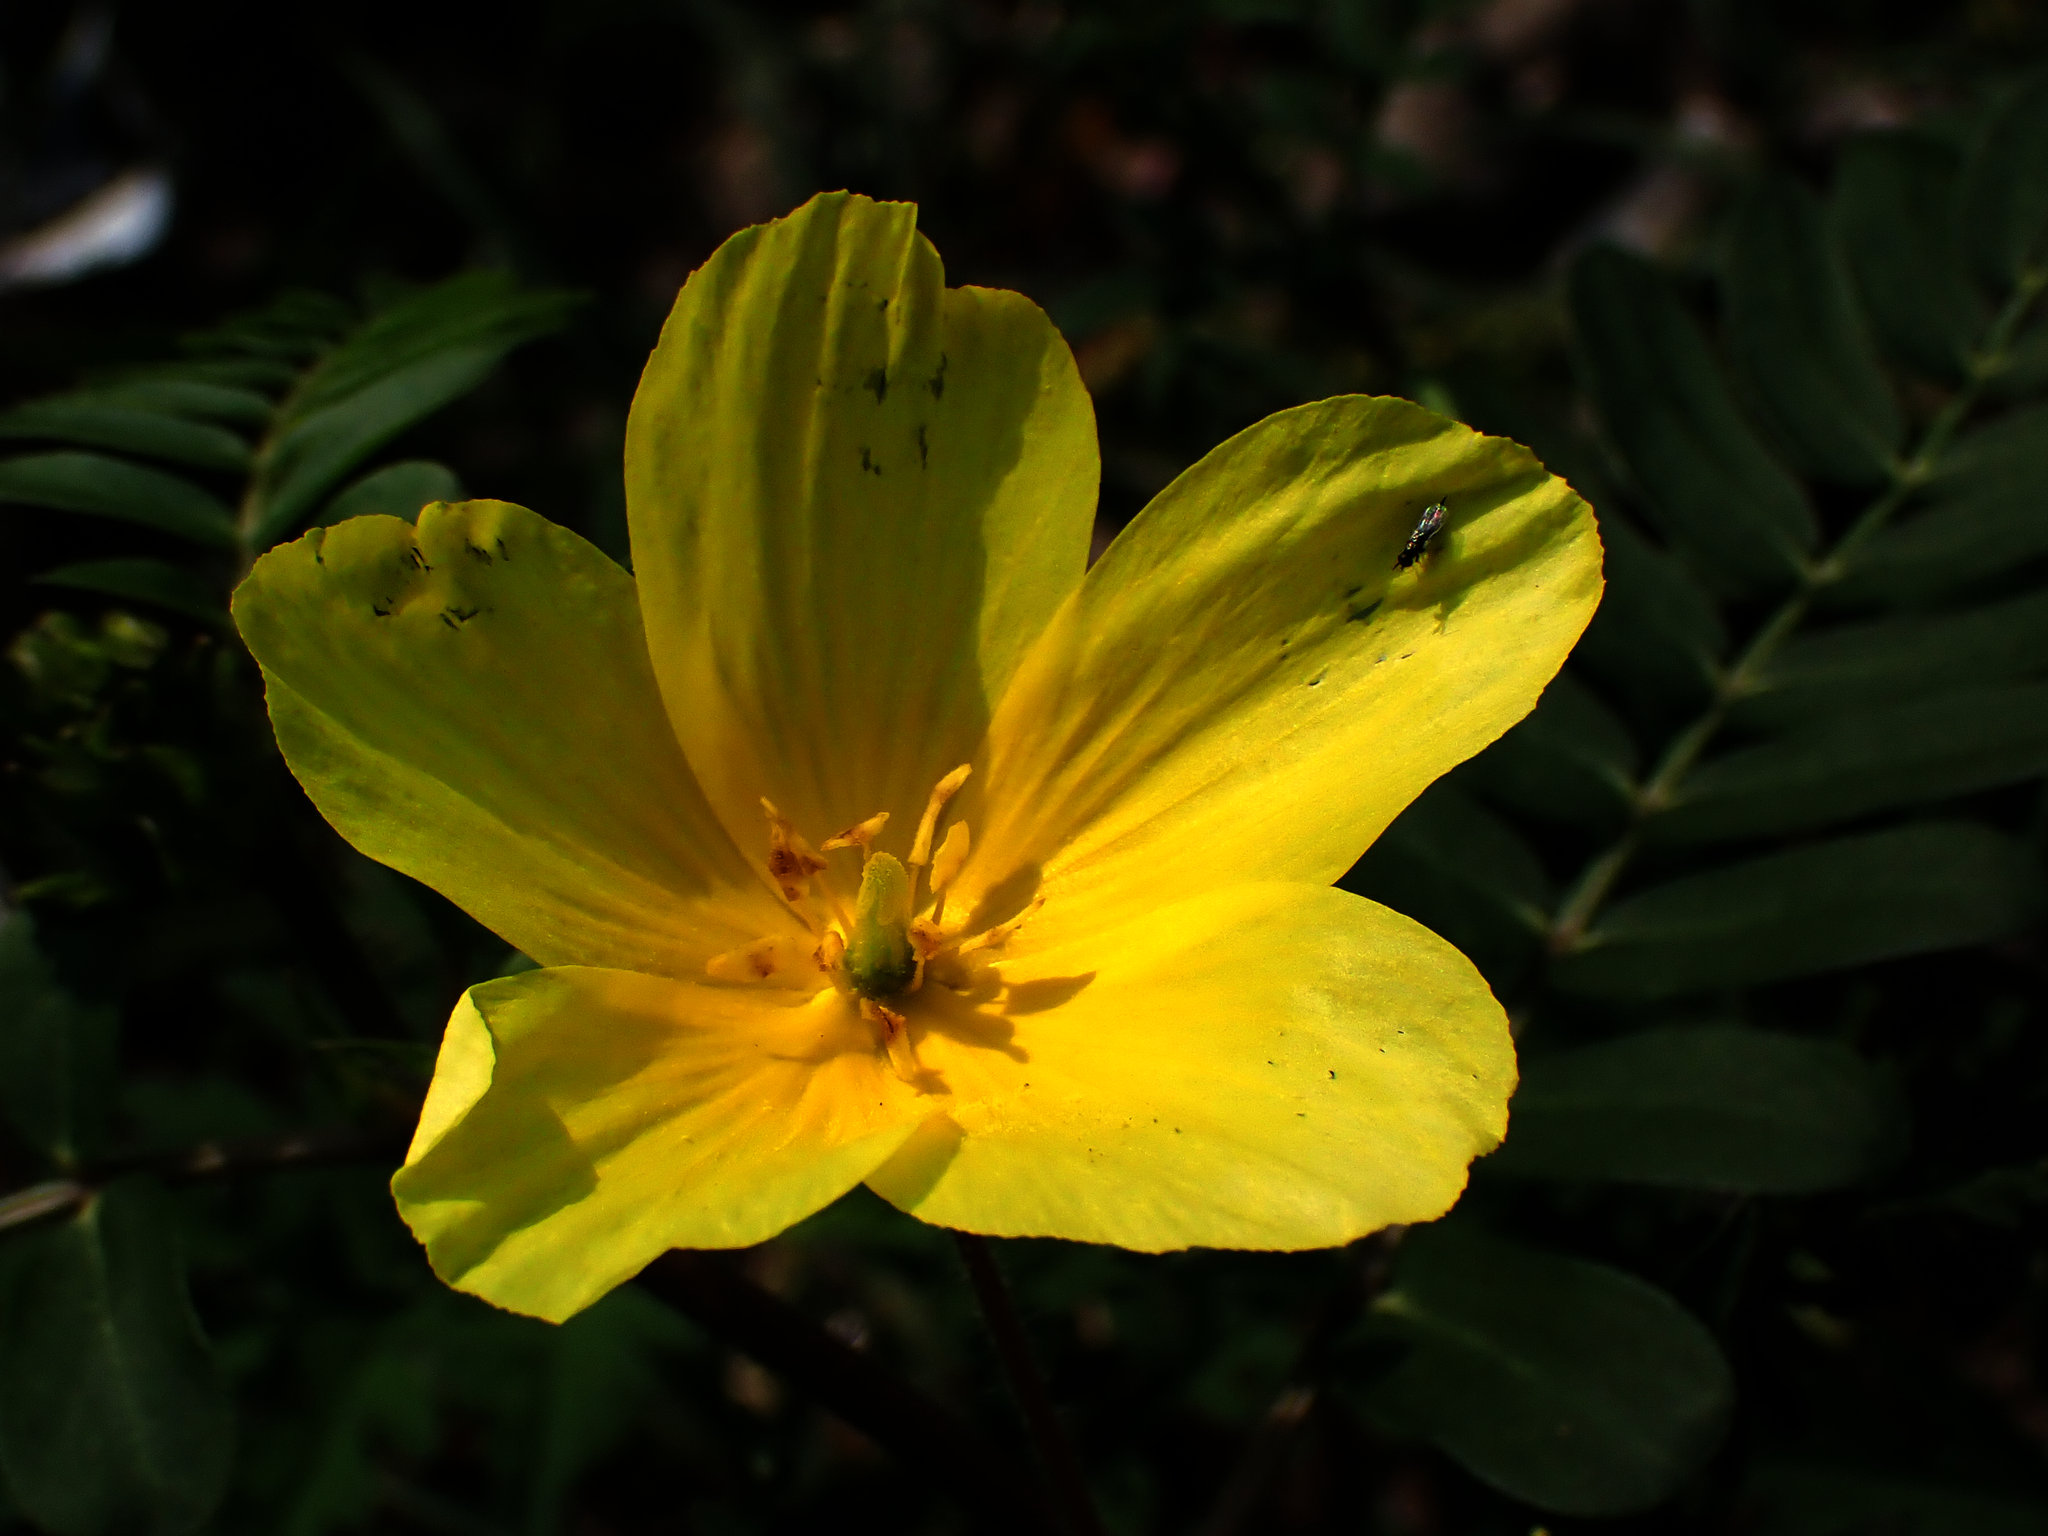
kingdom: Plantae
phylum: Tracheophyta
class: Magnoliopsida
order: Zygophyllales
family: Zygophyllaceae
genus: Tribulus
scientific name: Tribulus cistoides
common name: Jamaican feverplant
